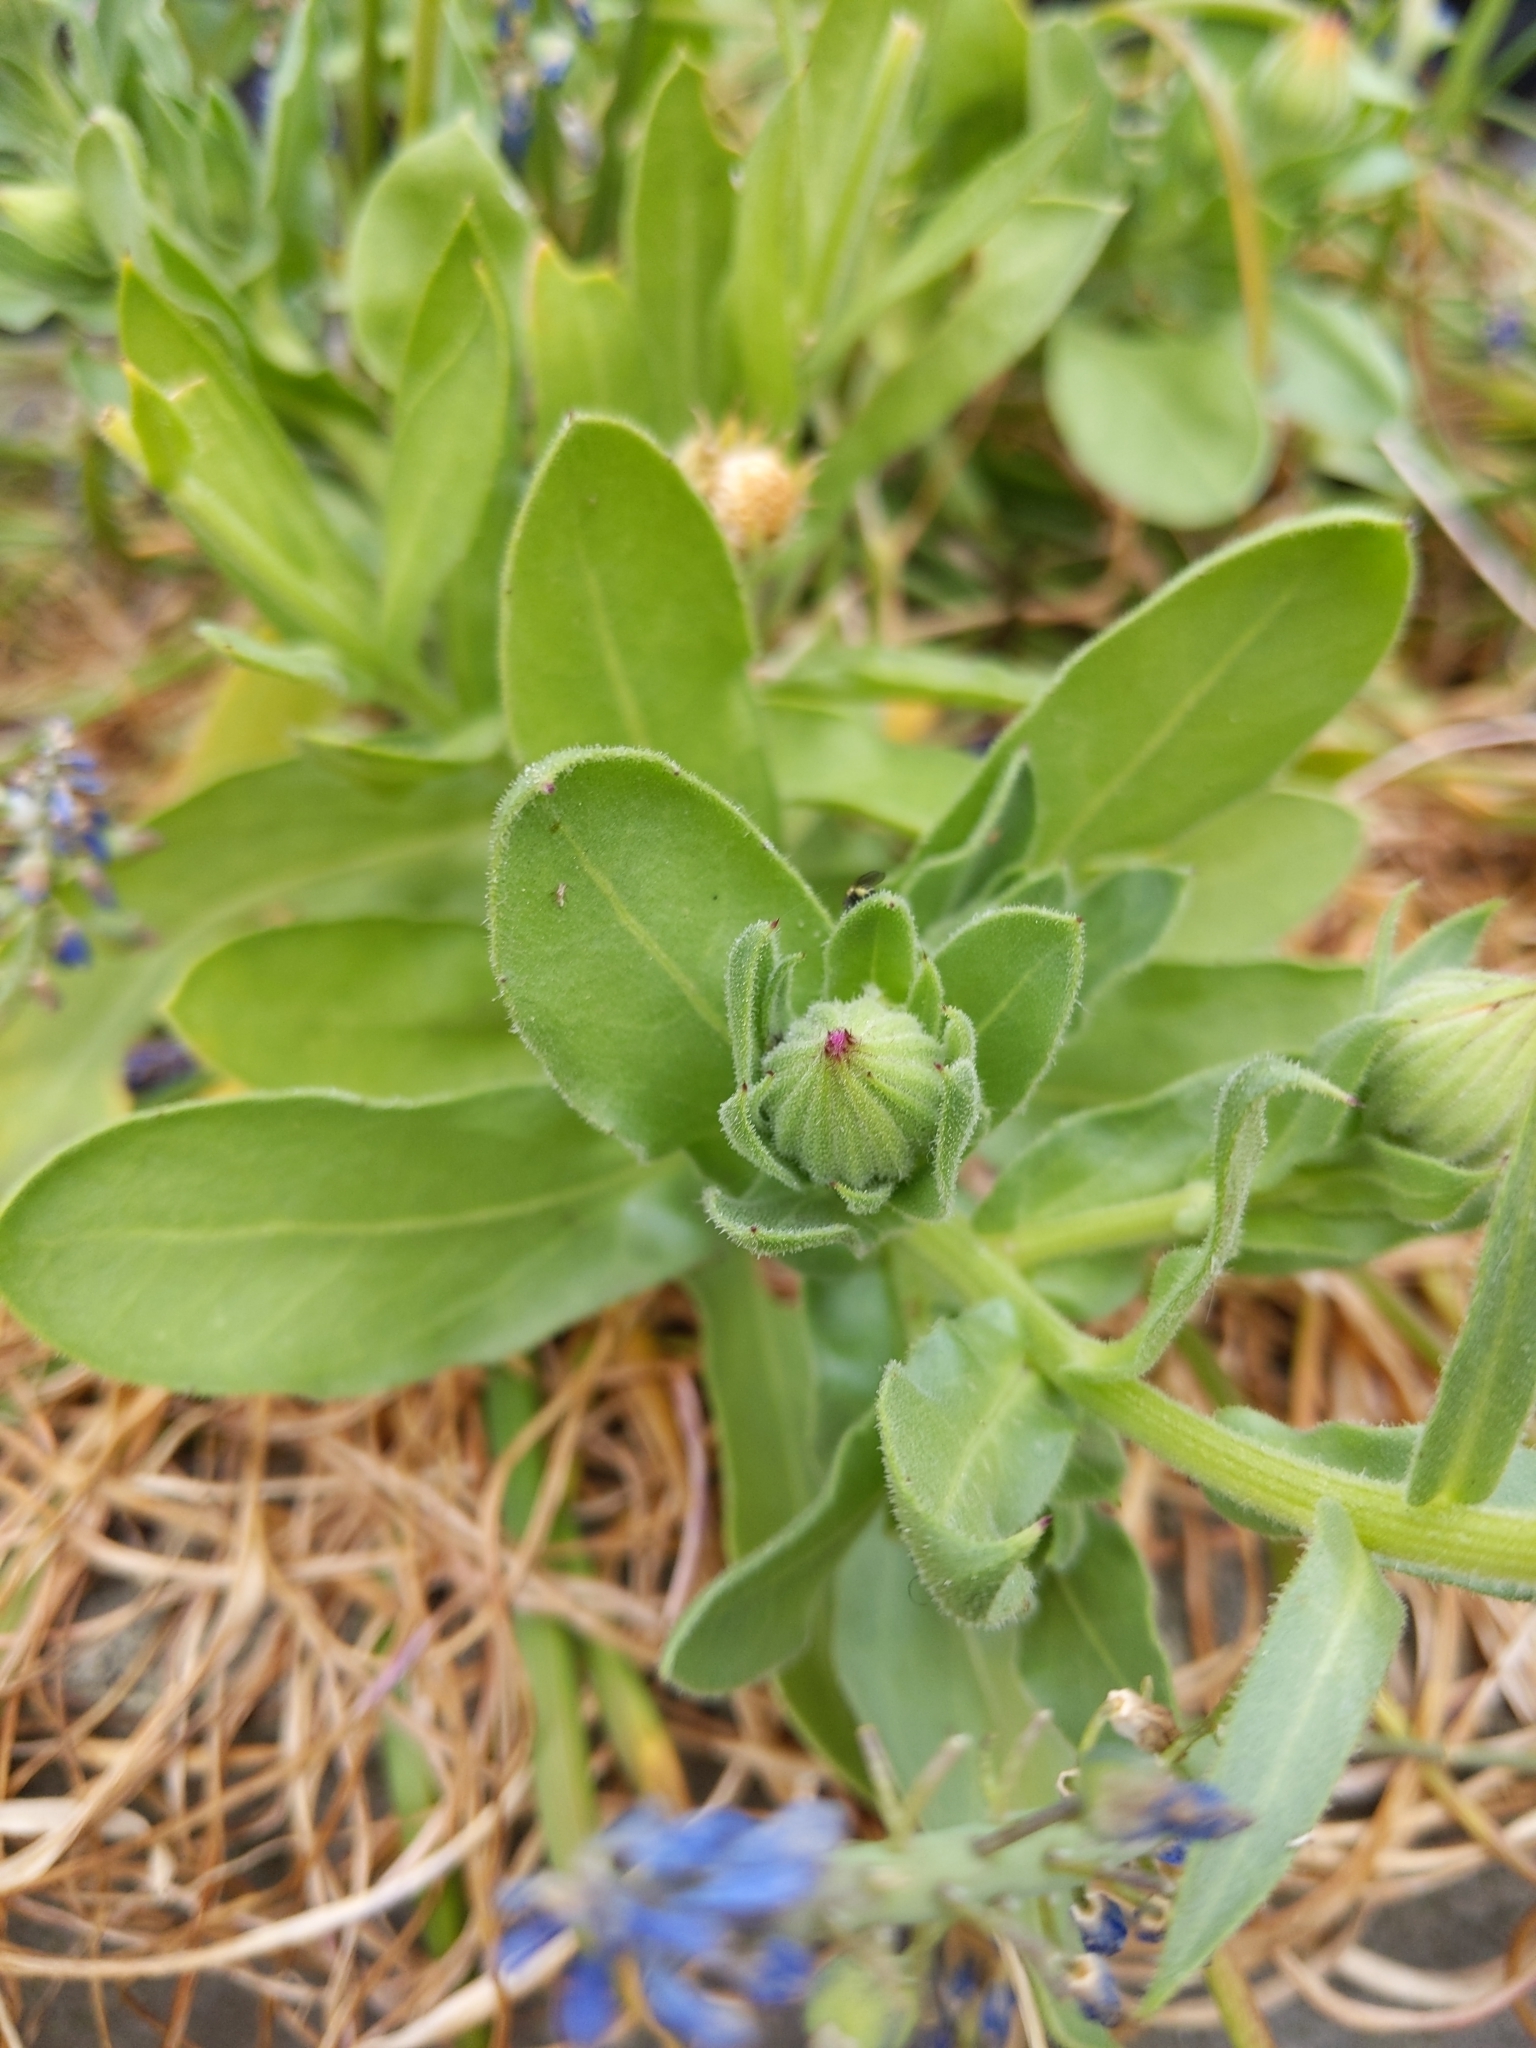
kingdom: Plantae
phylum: Tracheophyta
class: Magnoliopsida
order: Asterales
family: Asteraceae
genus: Calendula
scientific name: Calendula officinalis
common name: Pot marigold
